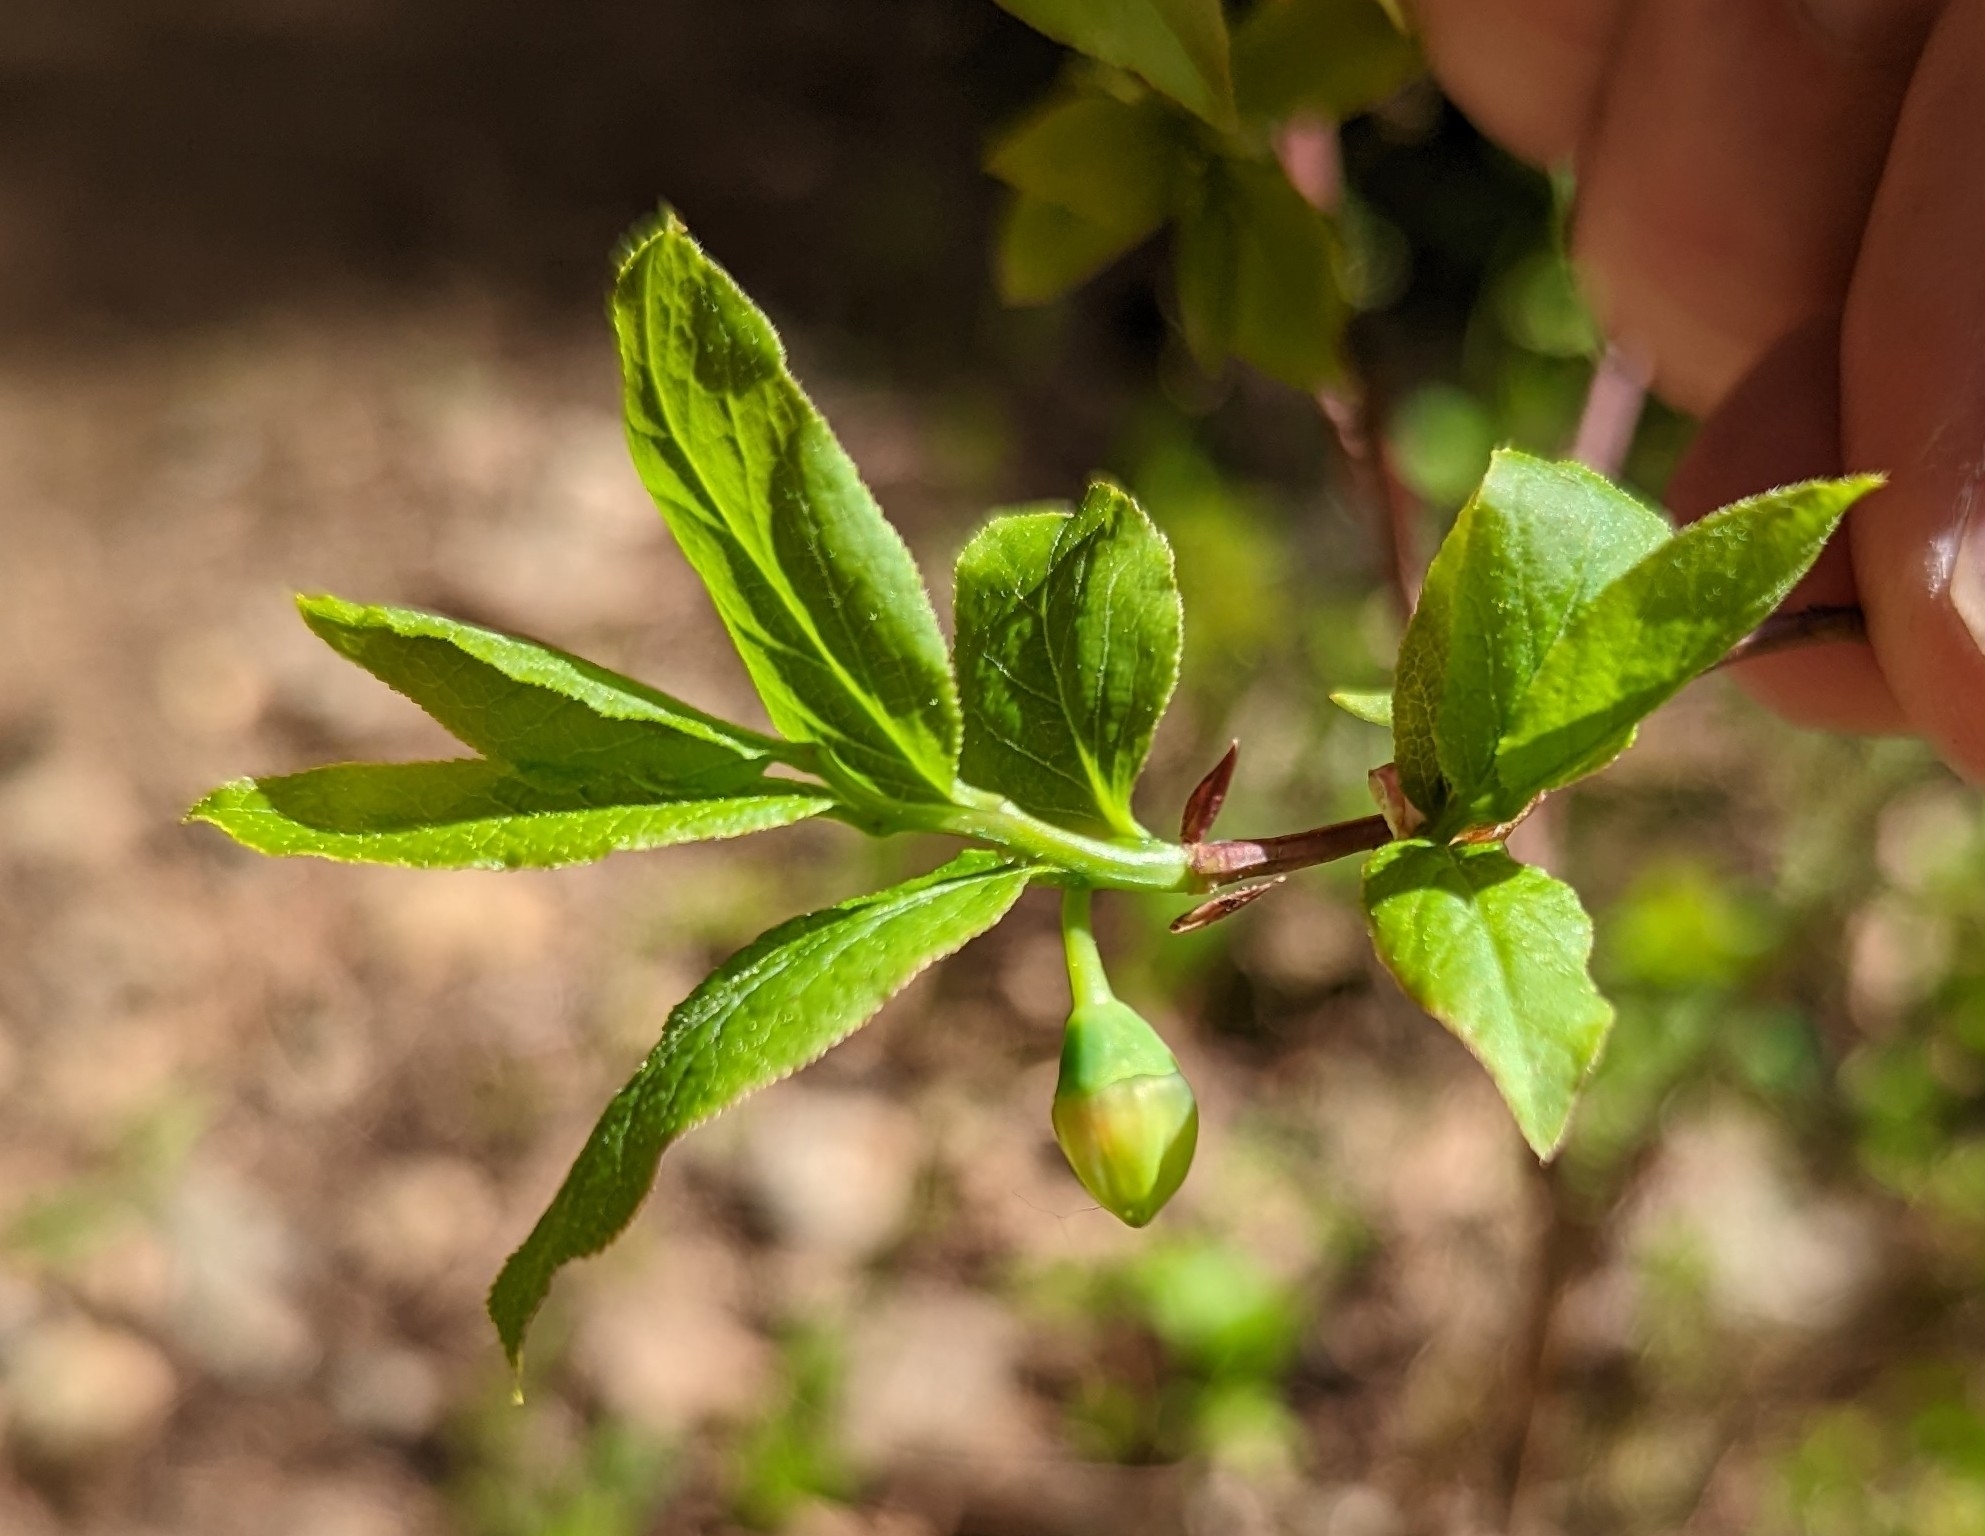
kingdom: Plantae
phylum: Tracheophyta
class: Magnoliopsida
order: Ericales
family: Ericaceae
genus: Vaccinium
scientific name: Vaccinium membranaceum
